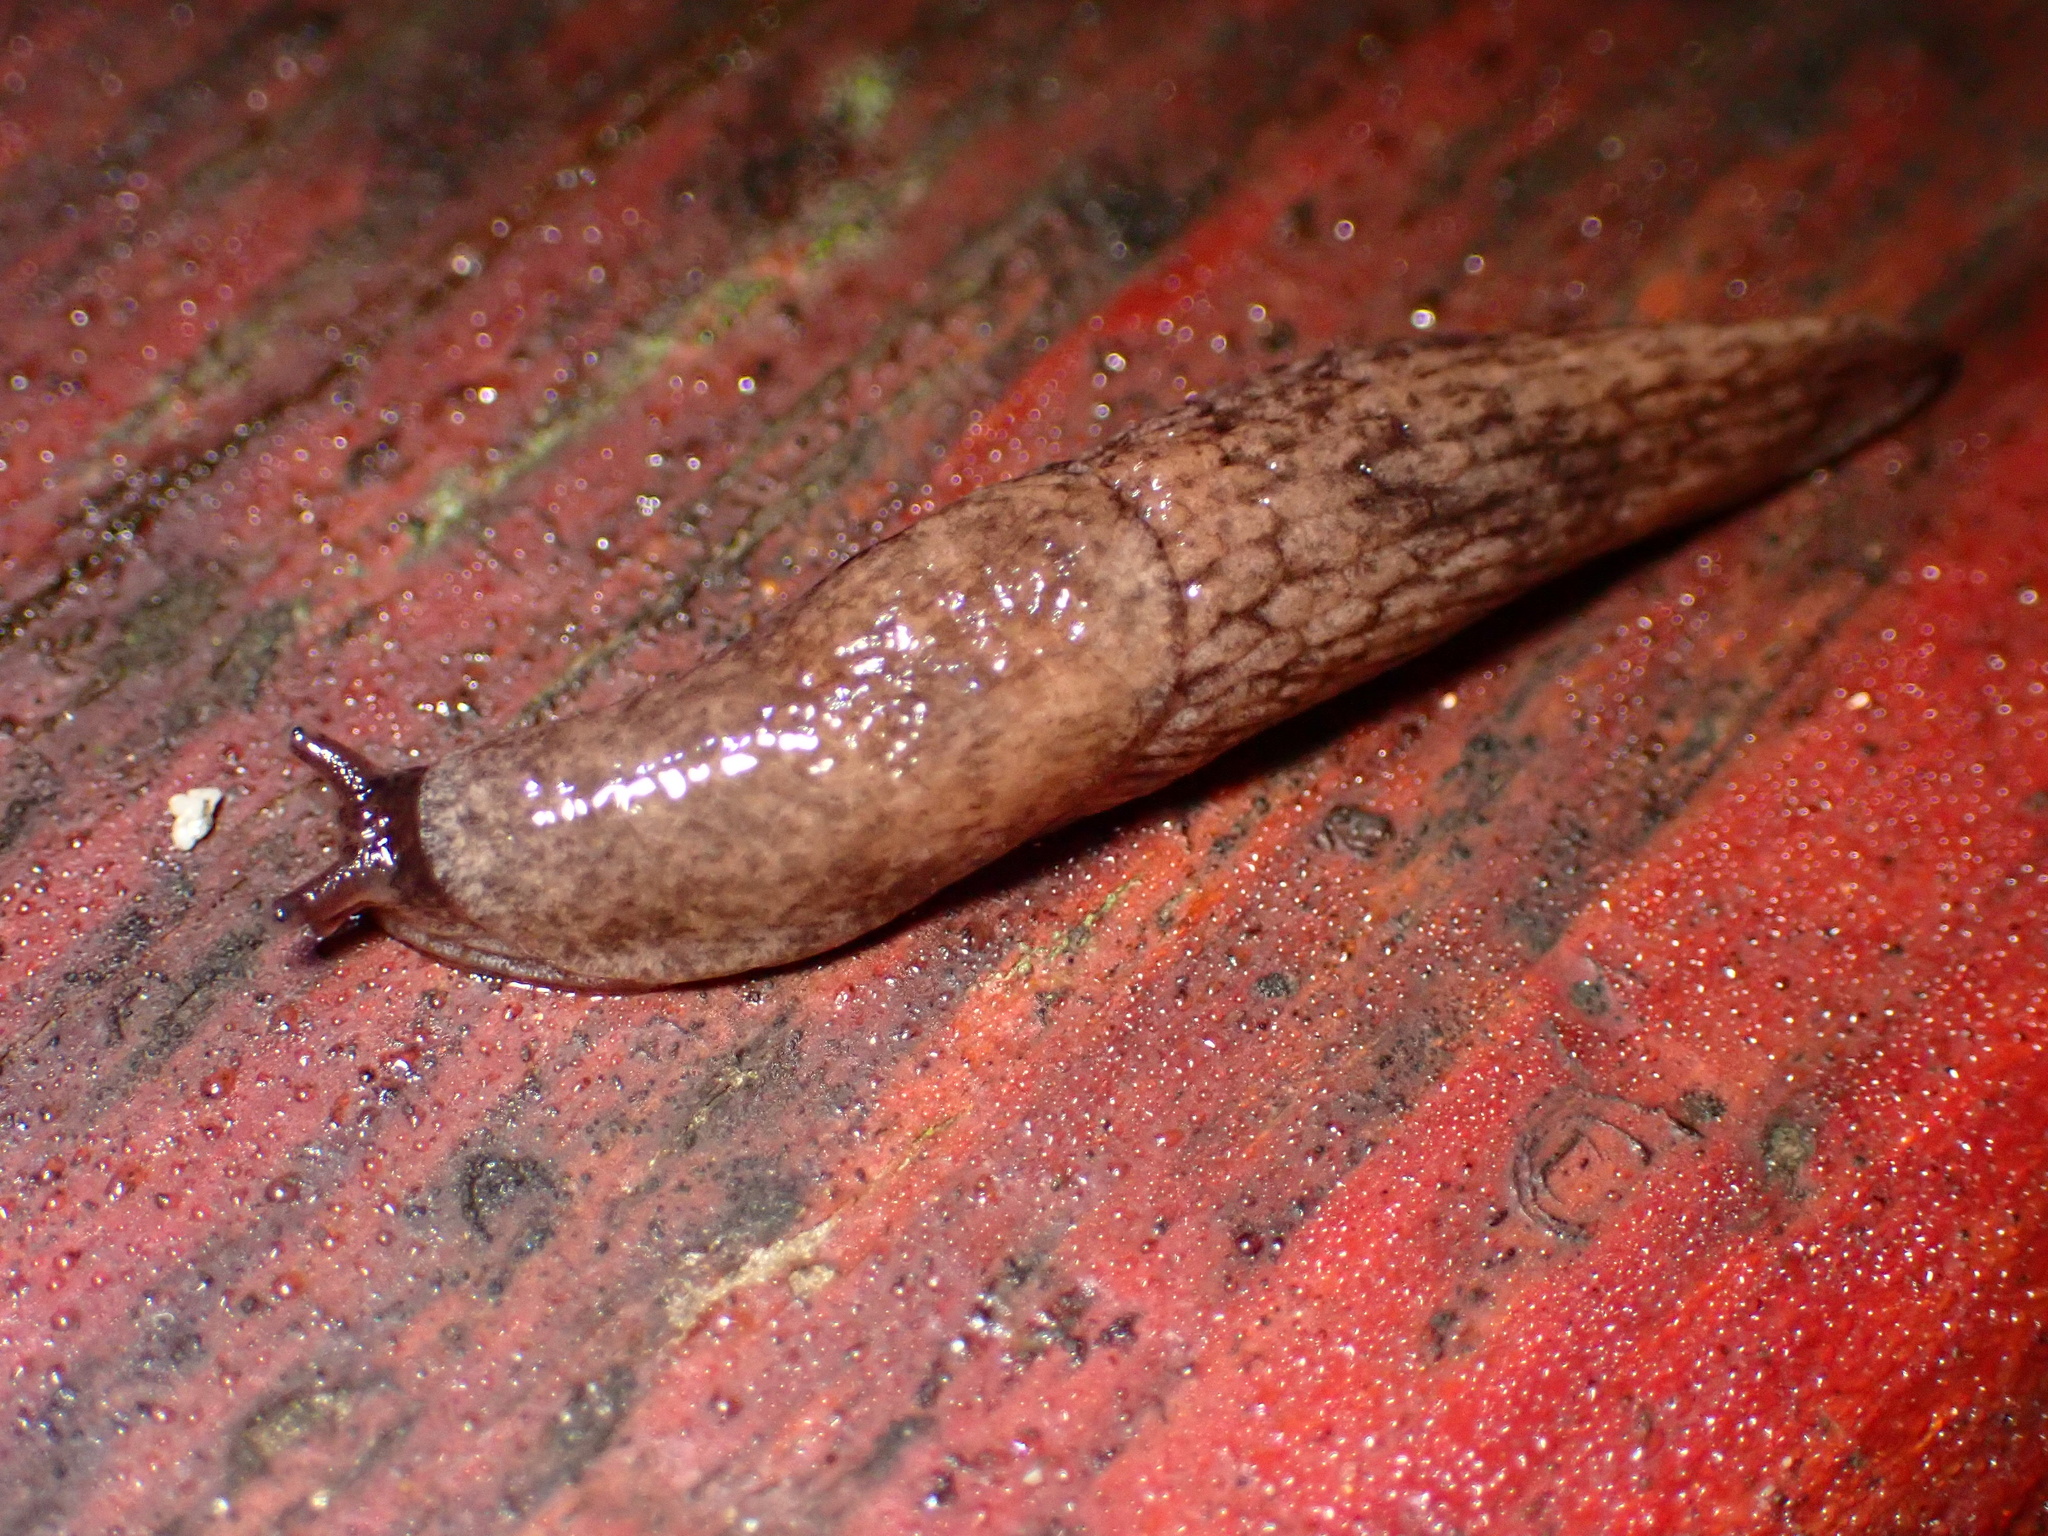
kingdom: Animalia
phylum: Mollusca
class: Gastropoda
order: Stylommatophora
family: Agriolimacidae
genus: Deroceras
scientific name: Deroceras reticulatum
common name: Gray field slug
